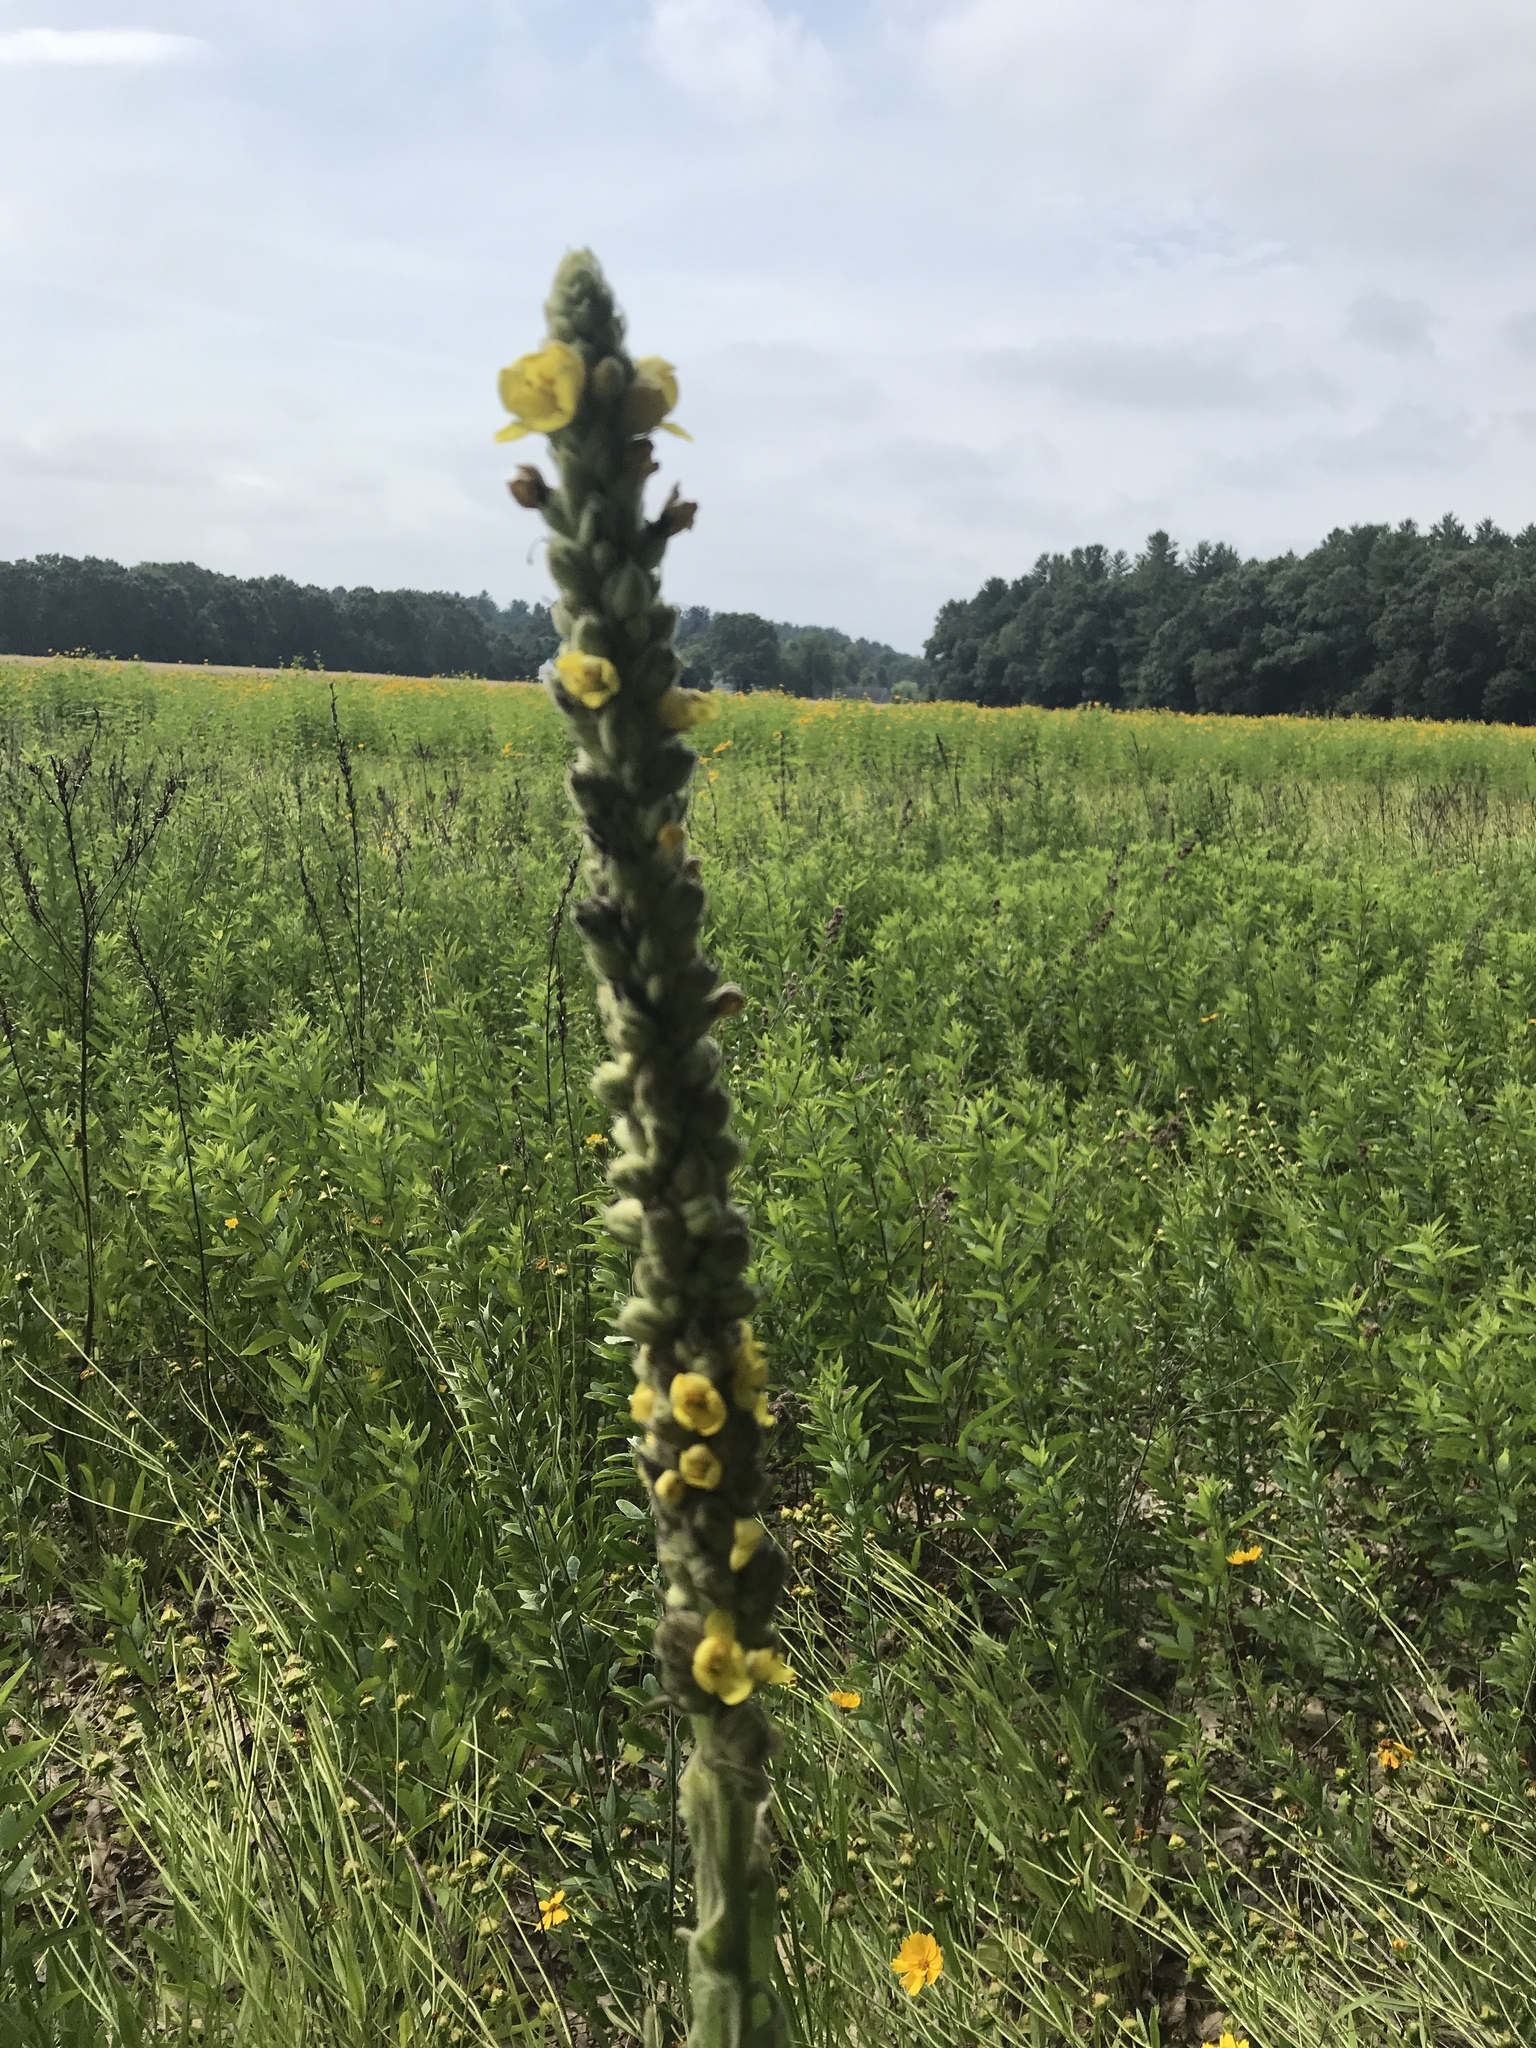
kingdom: Plantae
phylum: Tracheophyta
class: Magnoliopsida
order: Lamiales
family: Scrophulariaceae
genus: Verbascum
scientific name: Verbascum thapsus
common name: Common mullein
